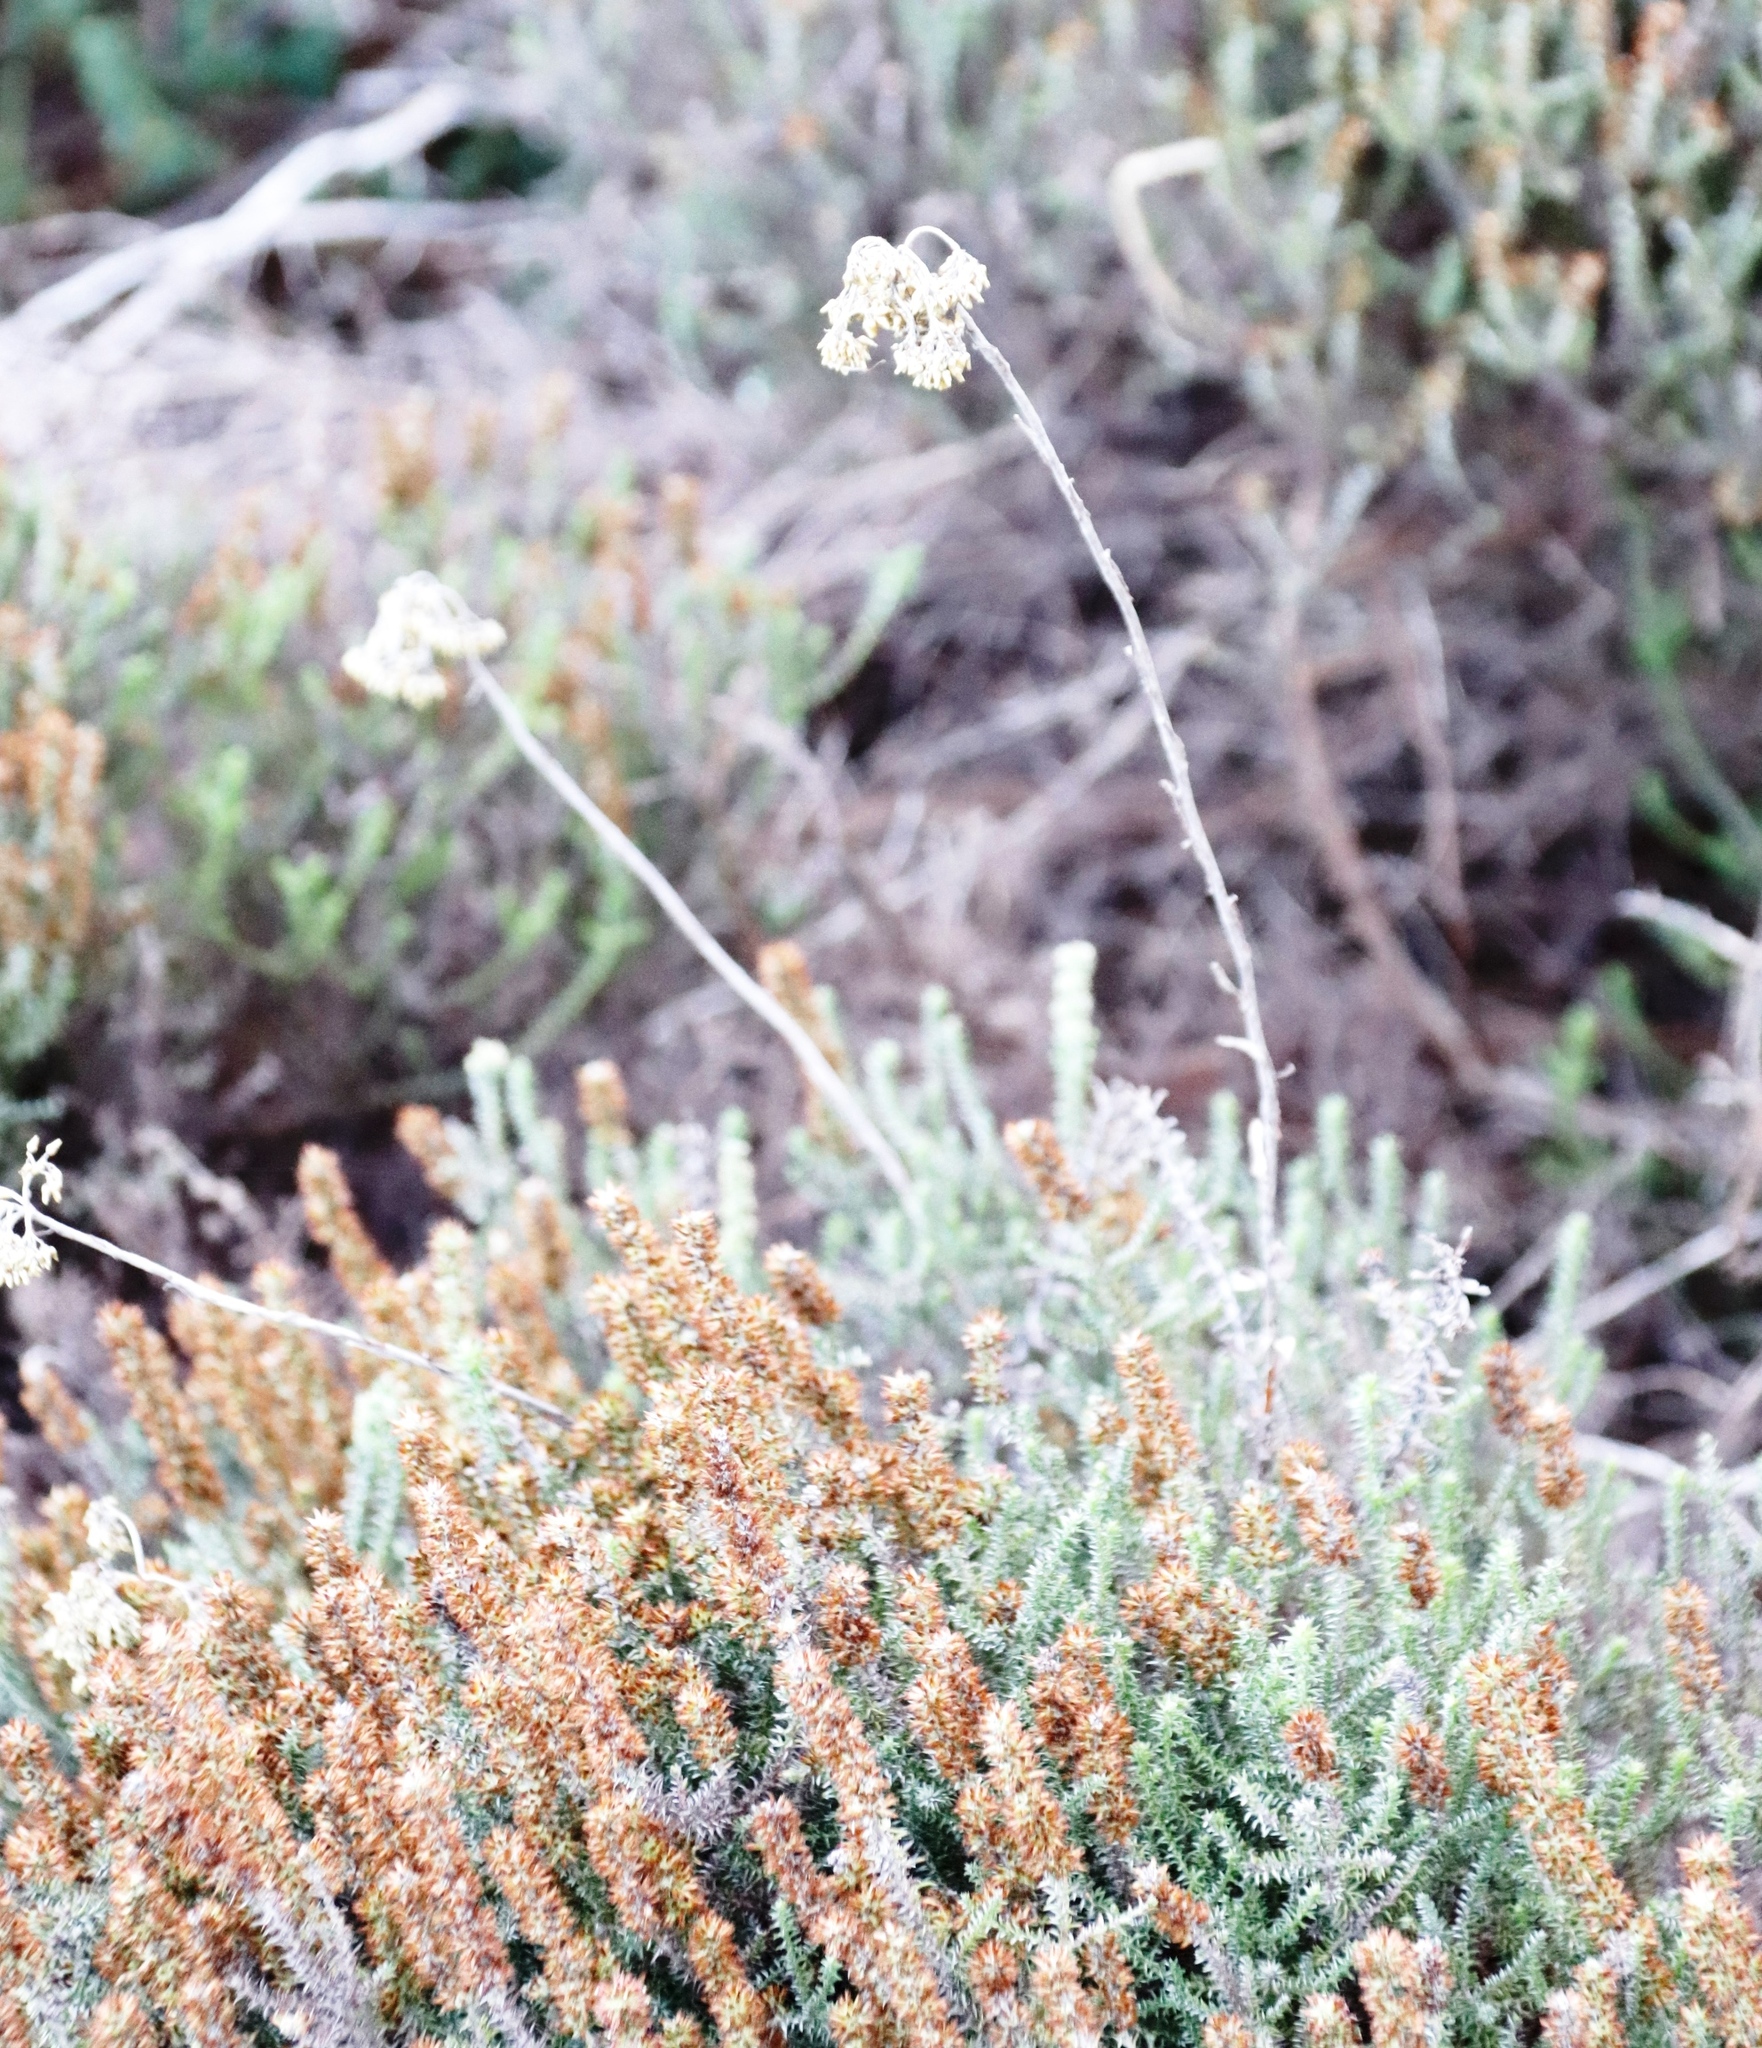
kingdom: Plantae
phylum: Tracheophyta
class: Magnoliopsida
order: Asterales
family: Asteraceae
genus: Seriphium
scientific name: Seriphium cinereum
